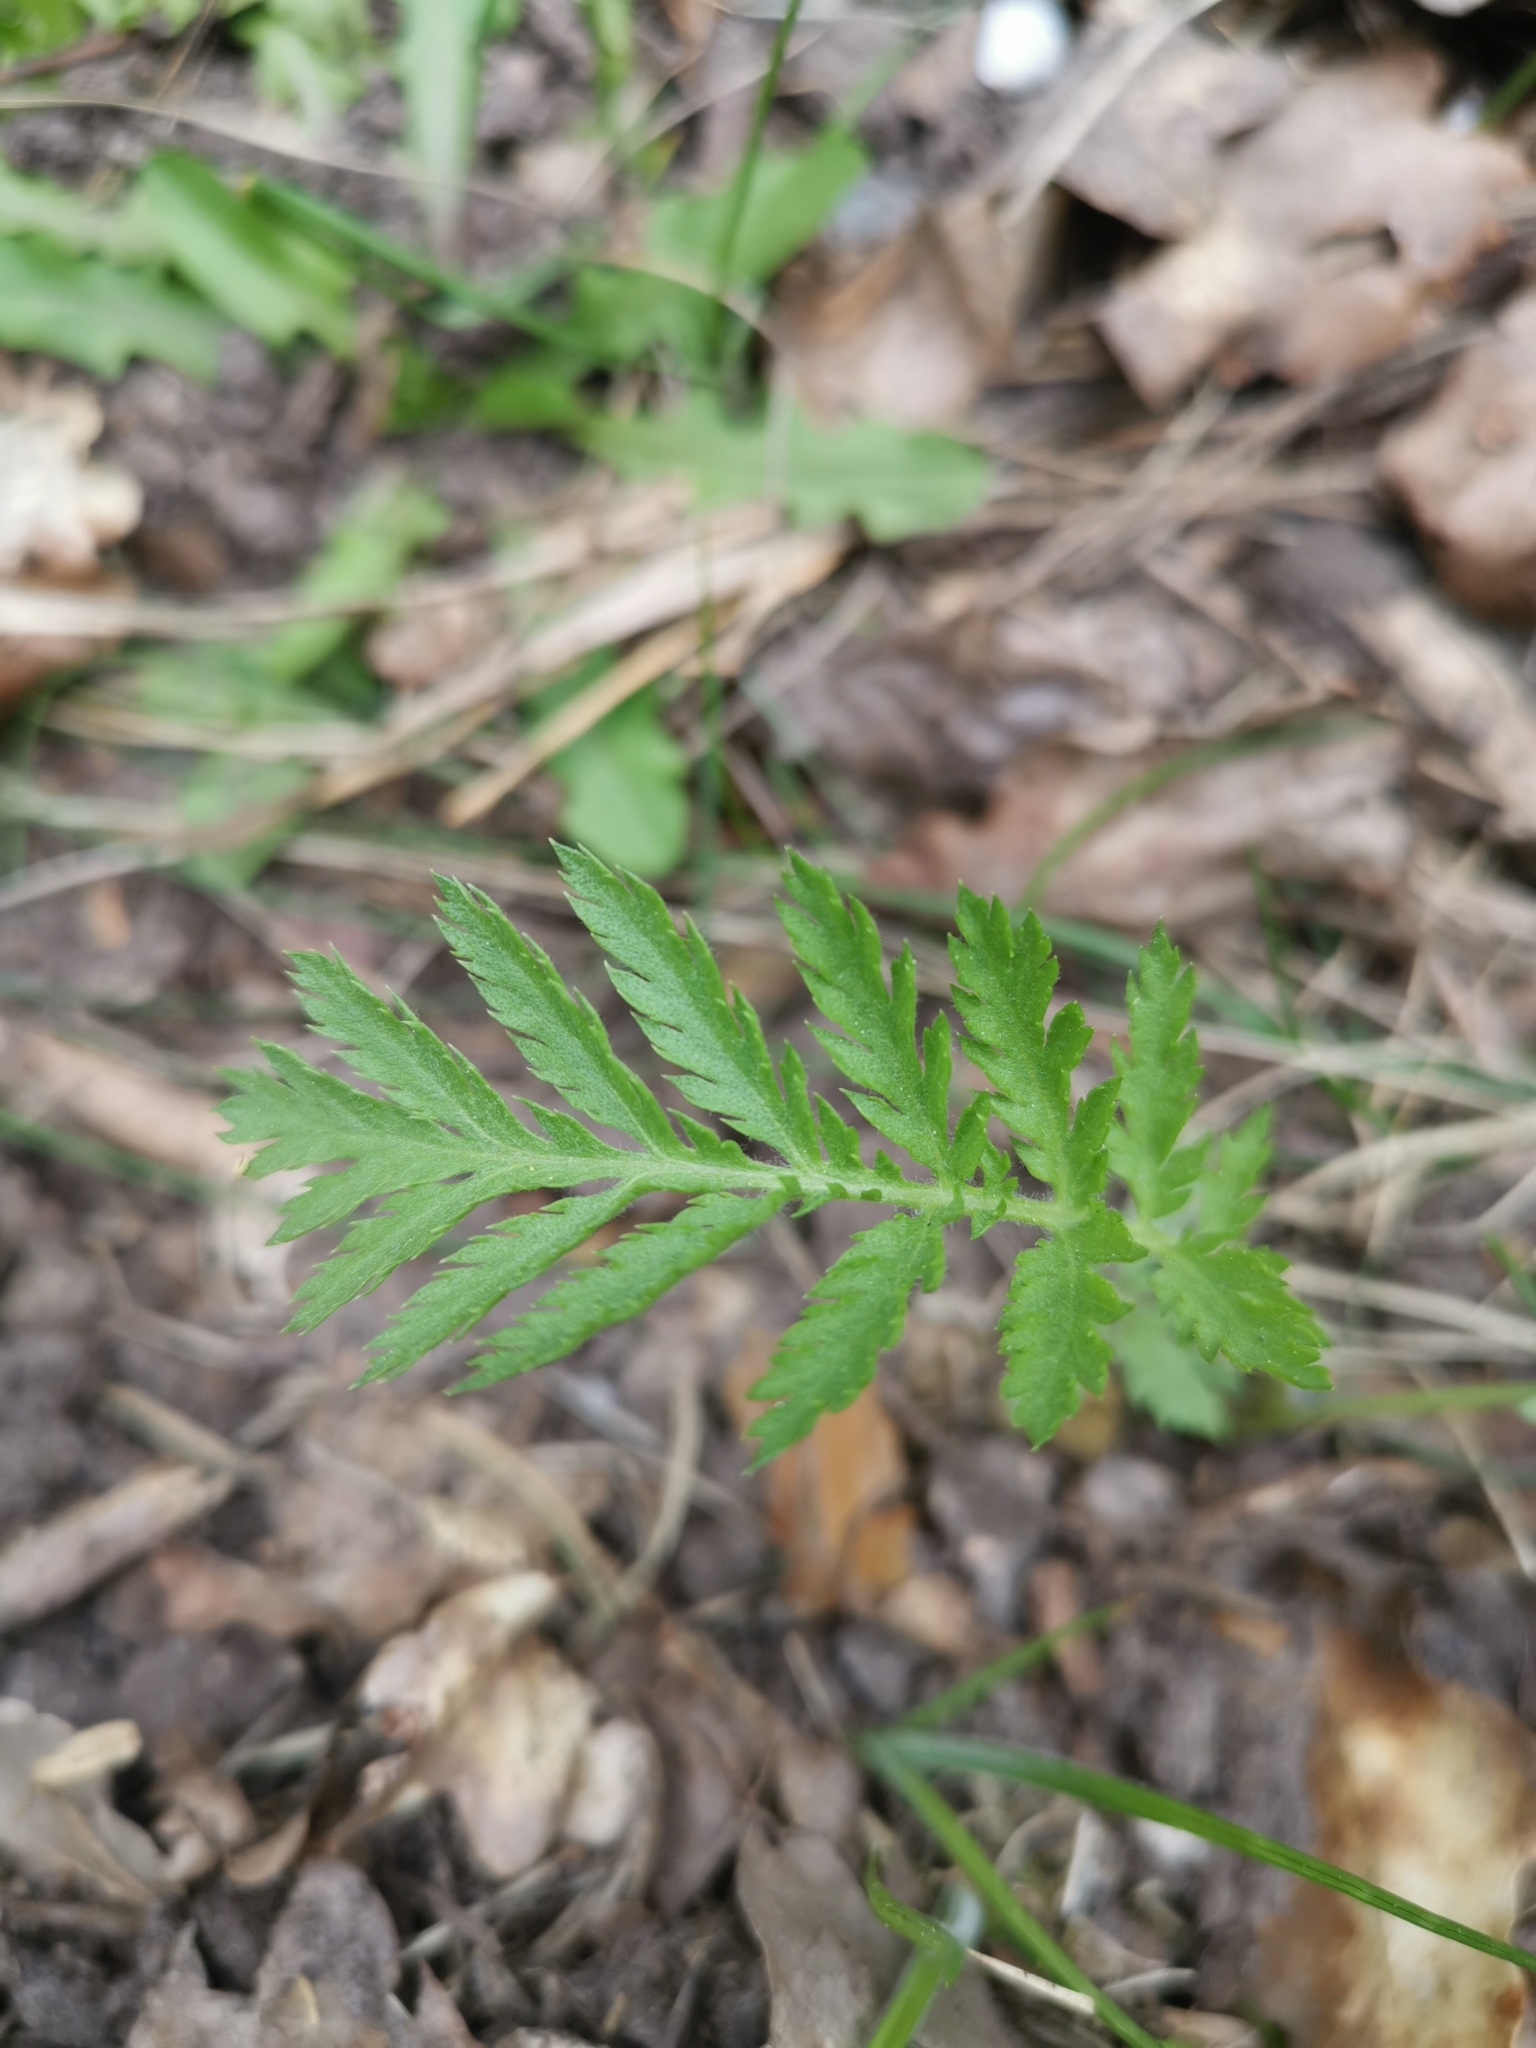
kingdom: Plantae
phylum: Tracheophyta
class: Magnoliopsida
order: Asterales
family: Asteraceae
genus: Tanacetum
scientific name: Tanacetum vulgare
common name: Common tansy
